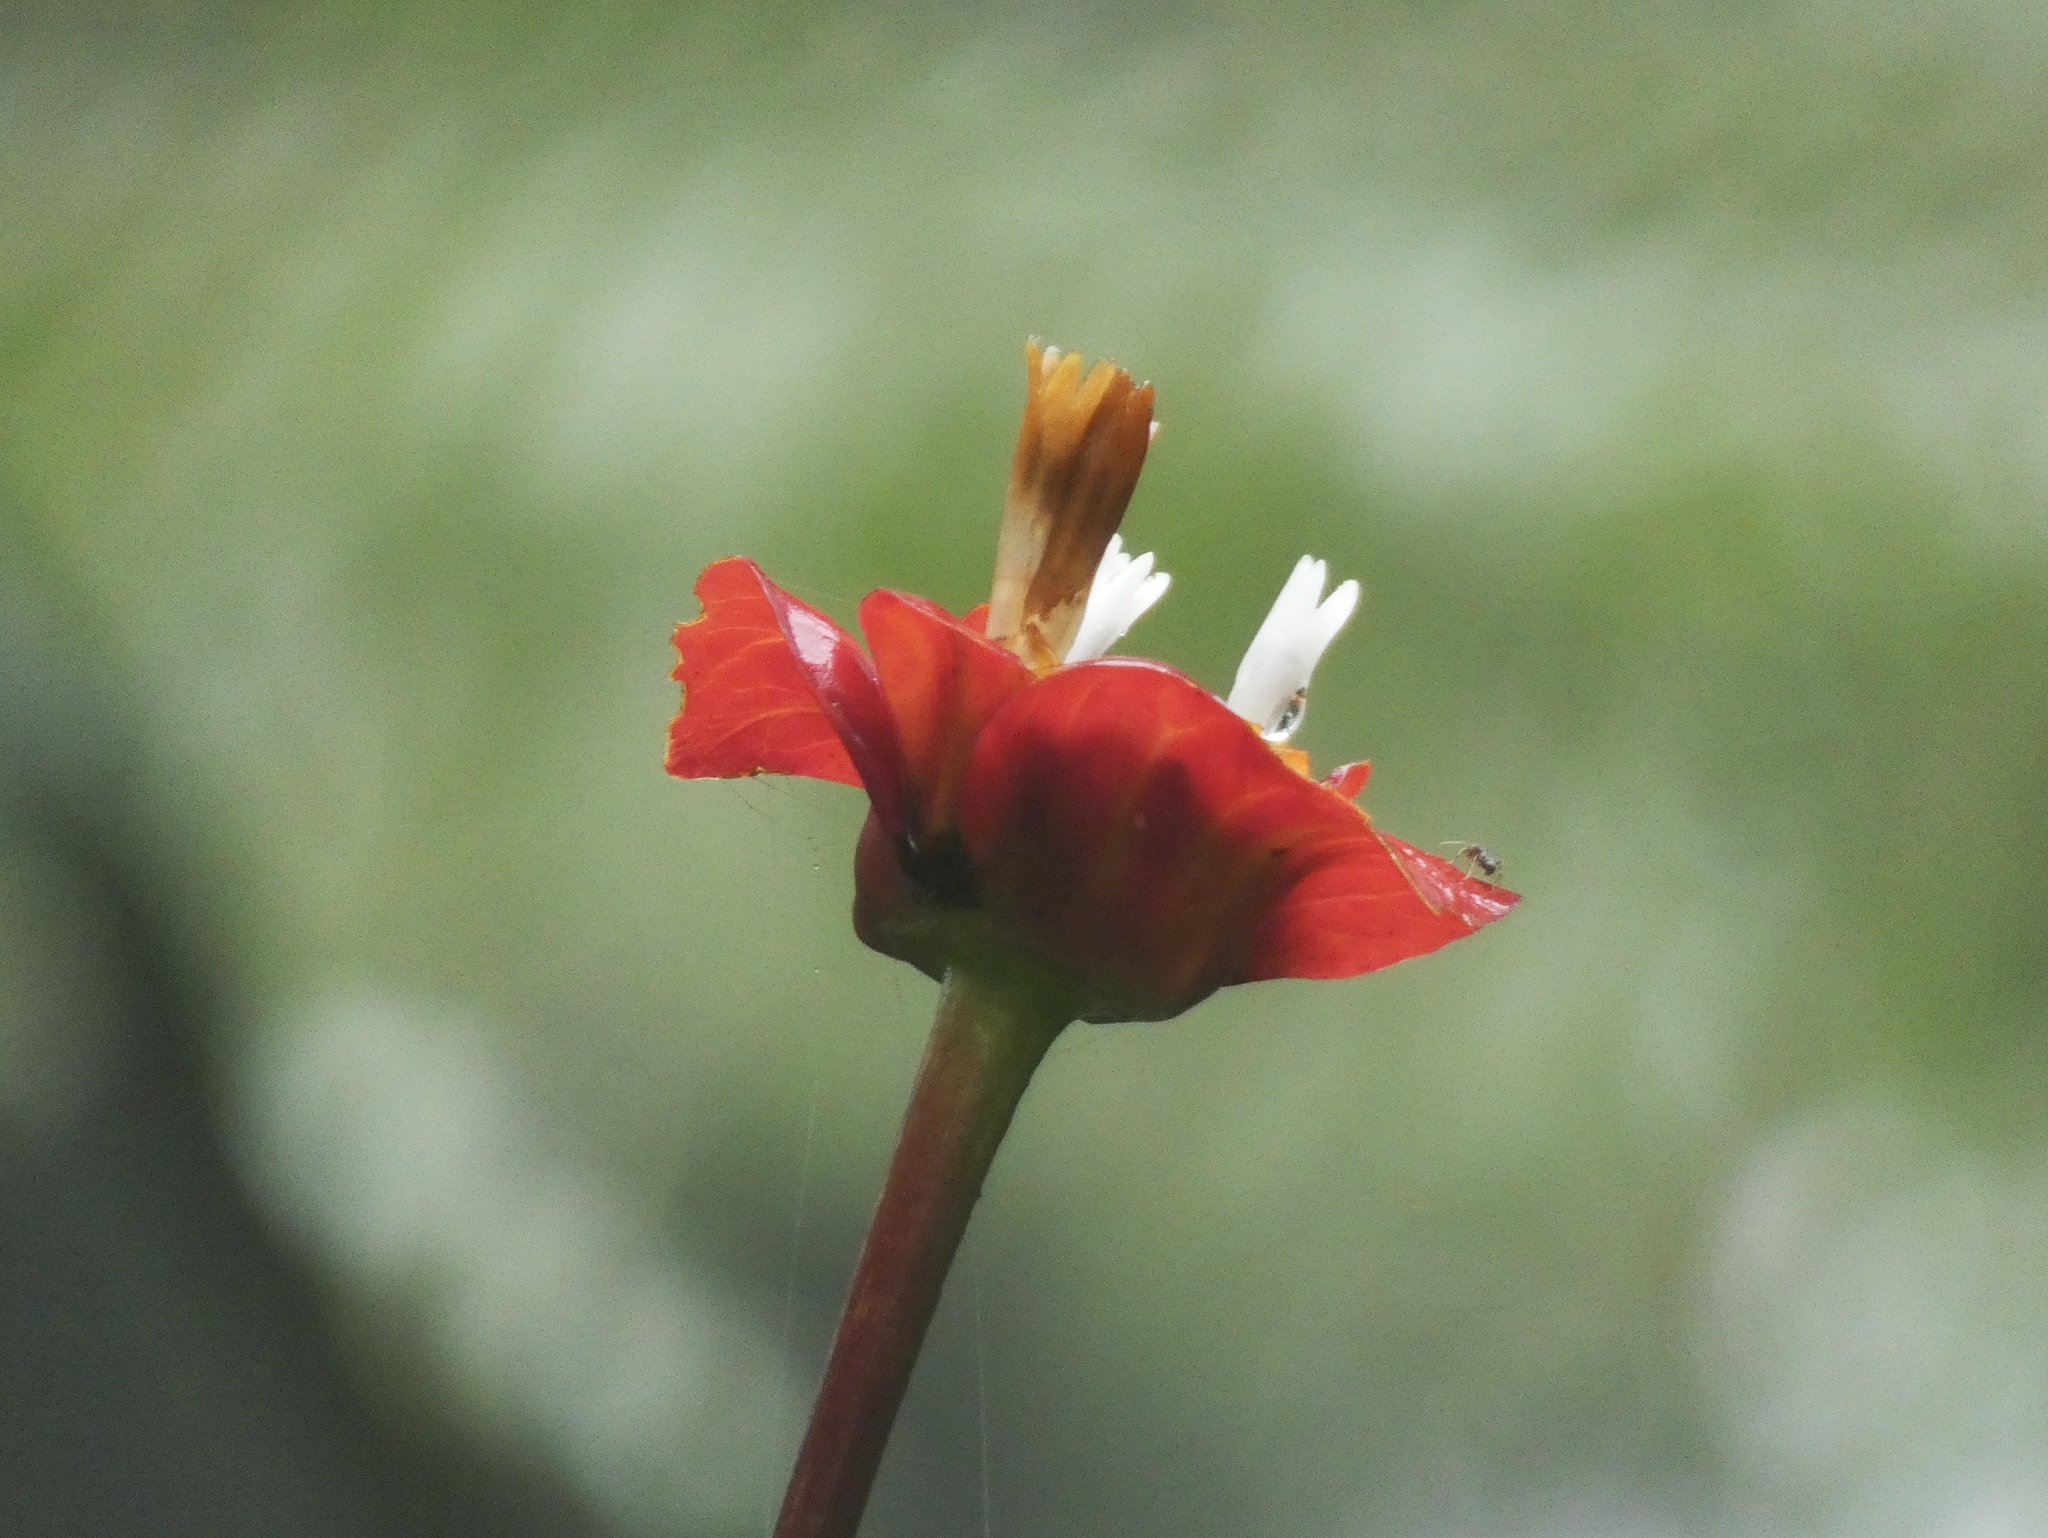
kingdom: Plantae
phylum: Tracheophyta
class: Magnoliopsida
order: Gentianales
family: Rubiaceae
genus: Palicourea
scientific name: Palicourea elata
